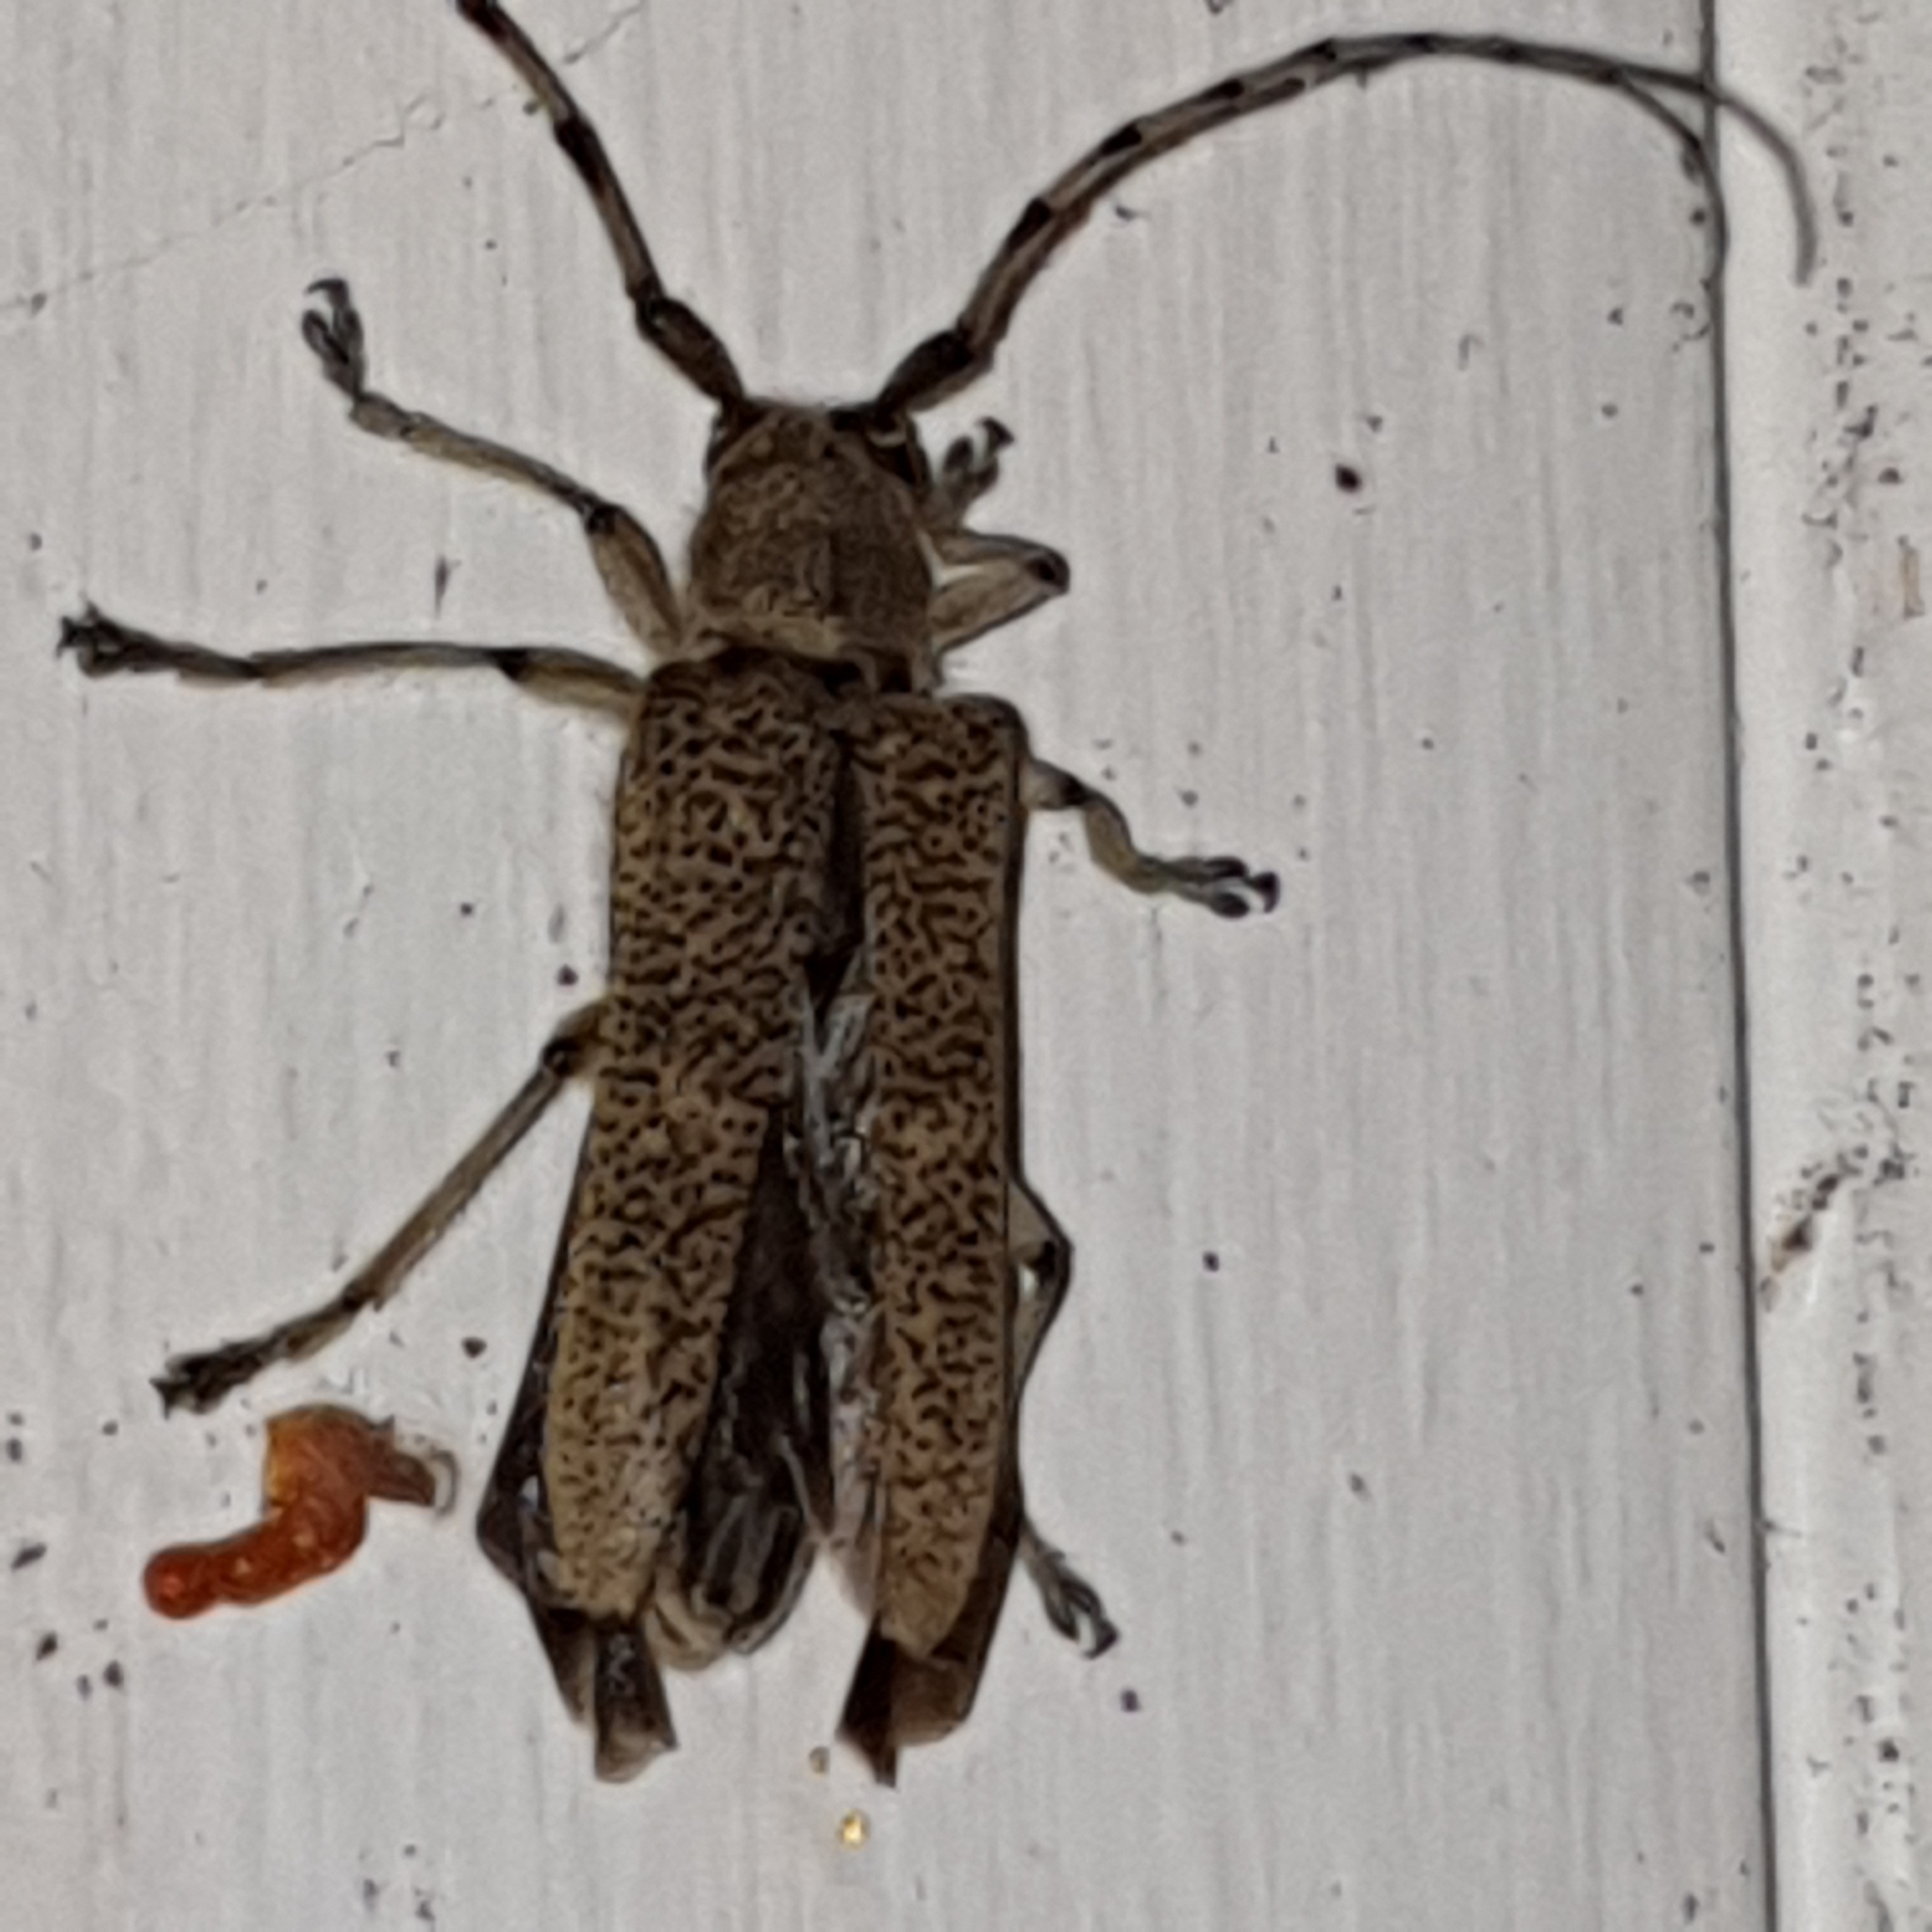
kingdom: Animalia
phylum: Arthropoda
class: Insecta
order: Coleoptera
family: Cerambycidae
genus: Saperda
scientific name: Saperda carcharias
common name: Poplar borer
